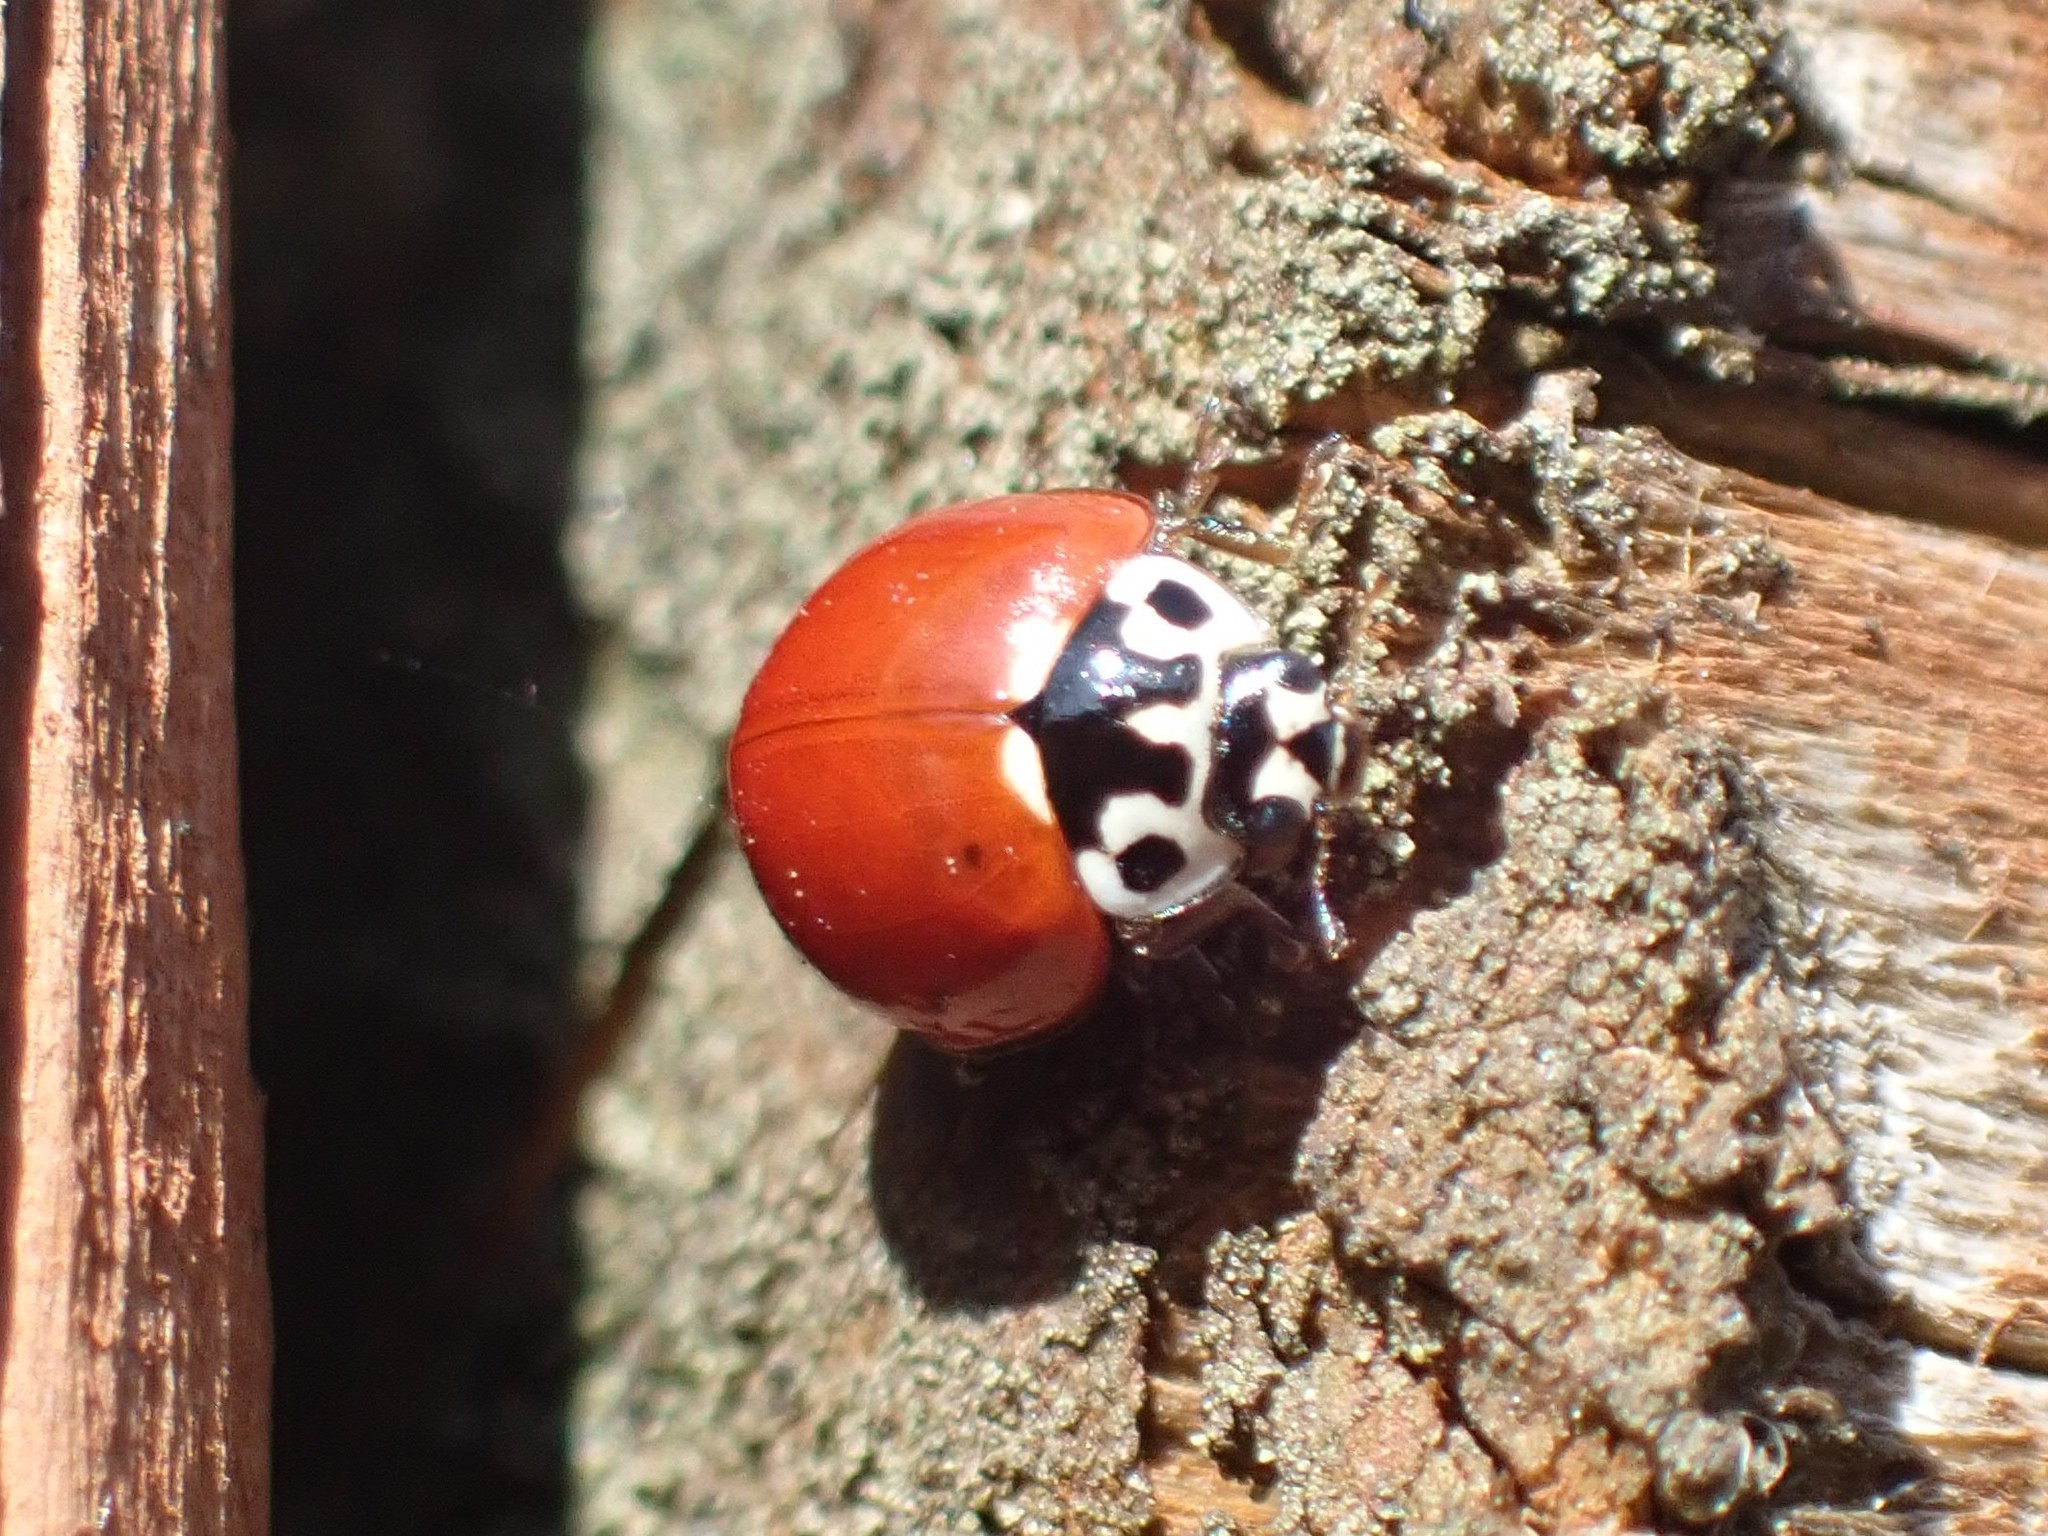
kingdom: Animalia
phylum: Arthropoda
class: Insecta
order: Coleoptera
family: Coccinellidae
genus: Cycloneda
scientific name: Cycloneda polita
